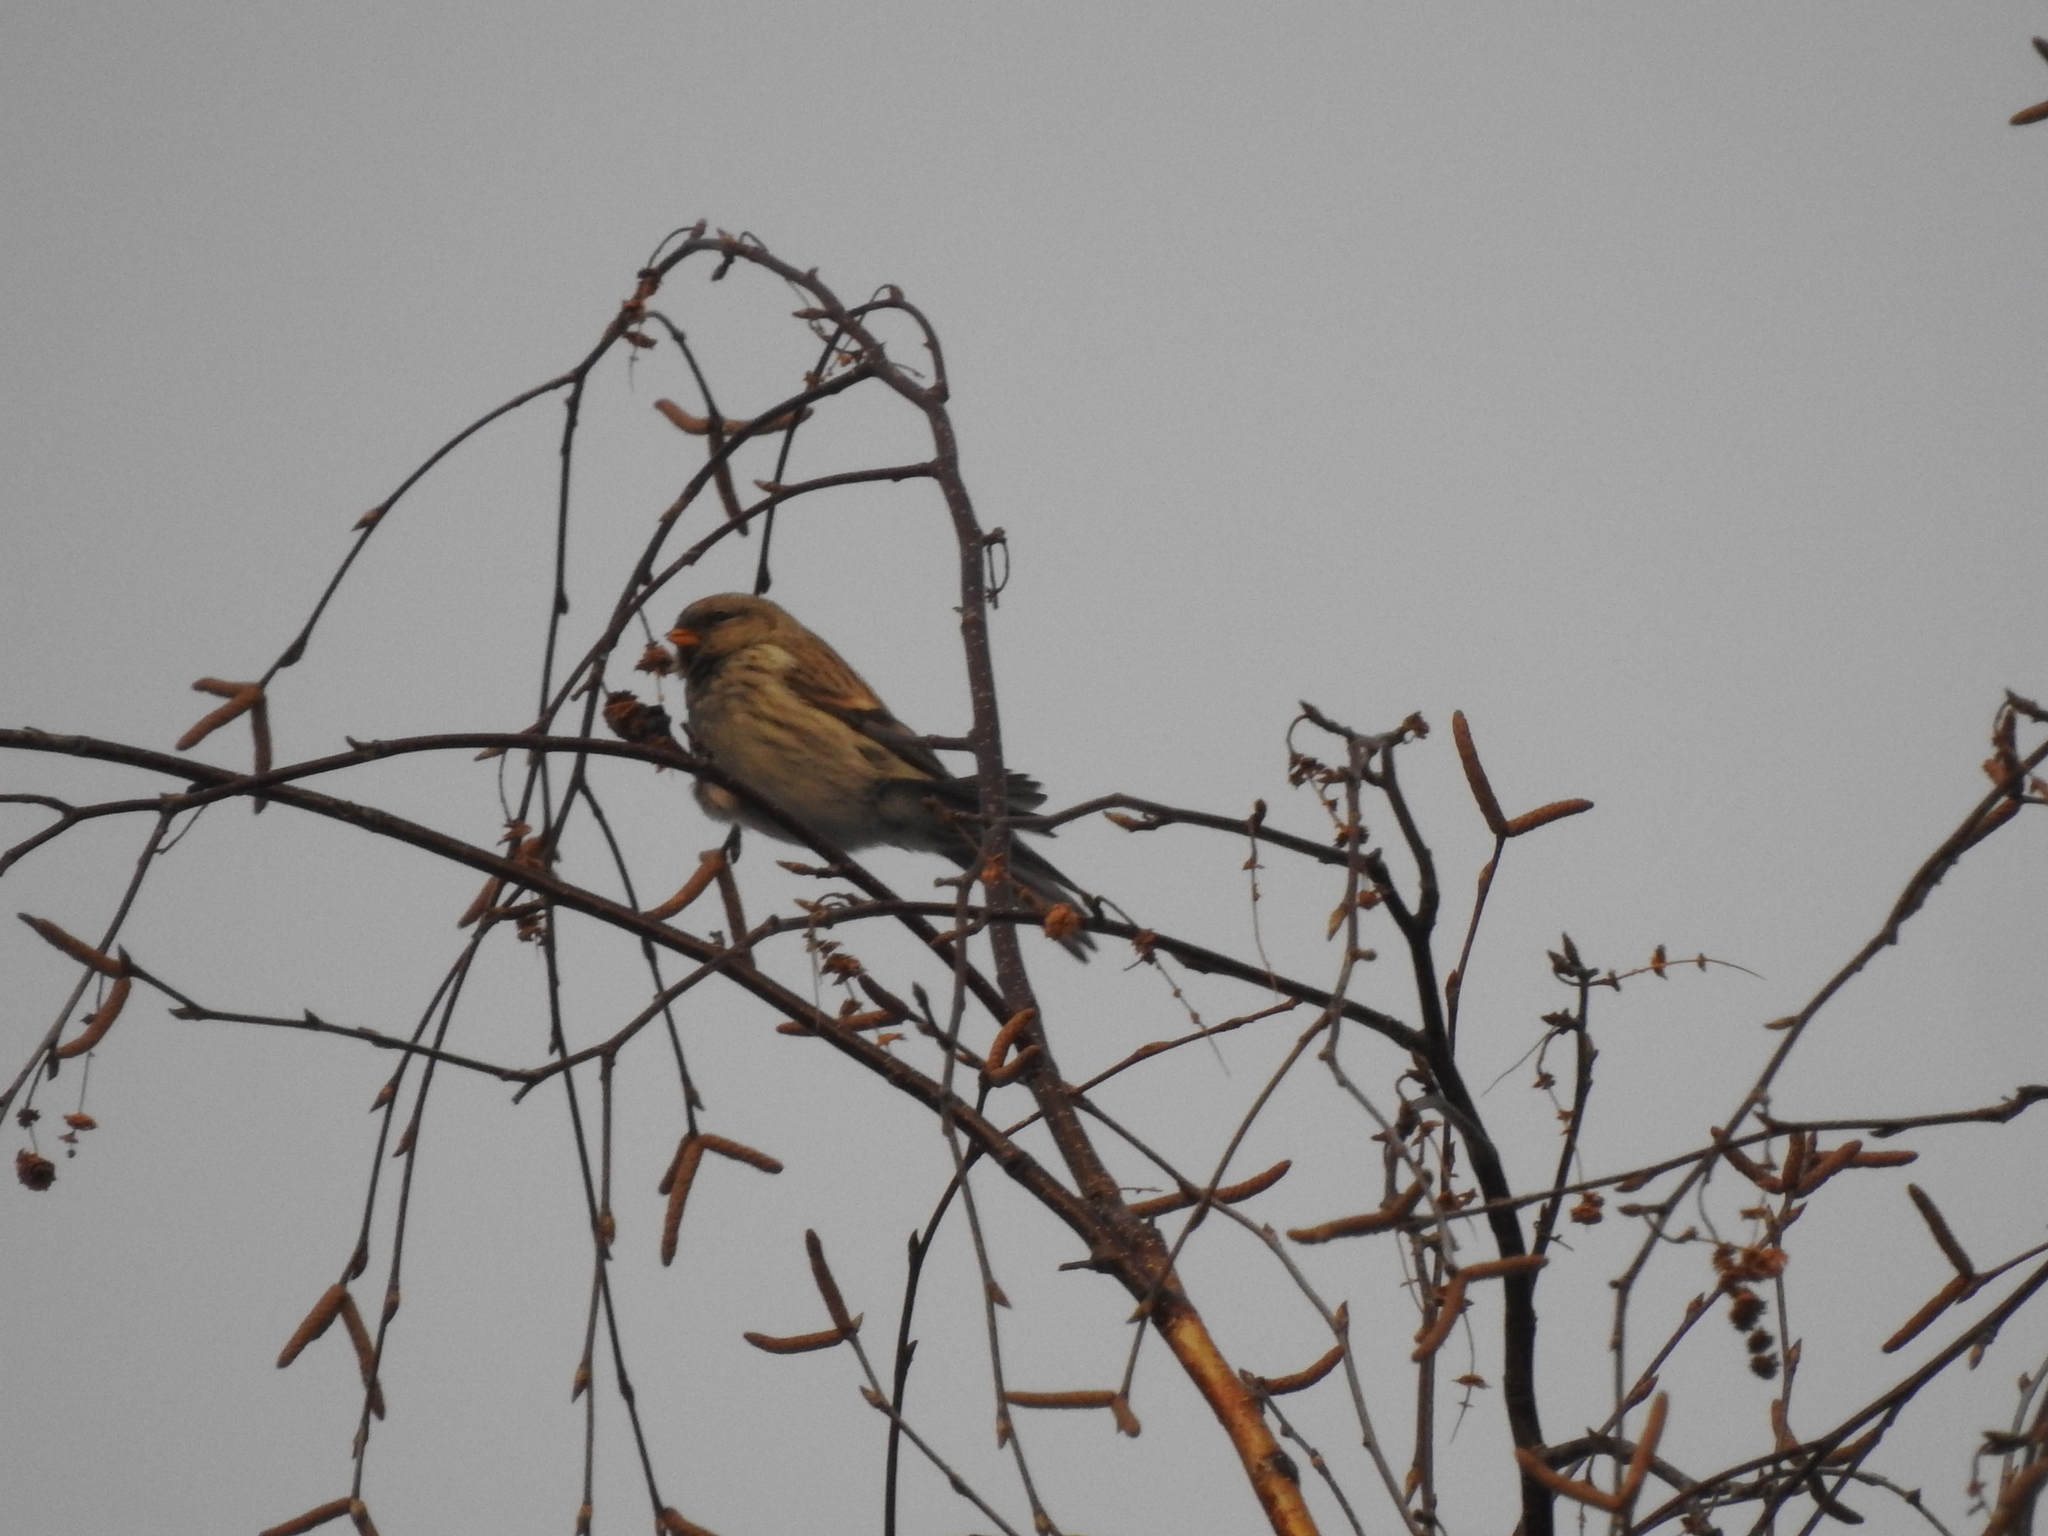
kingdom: Animalia
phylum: Chordata
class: Aves
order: Passeriformes
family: Fringillidae
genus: Acanthis
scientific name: Acanthis flammea
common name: Common redpoll
